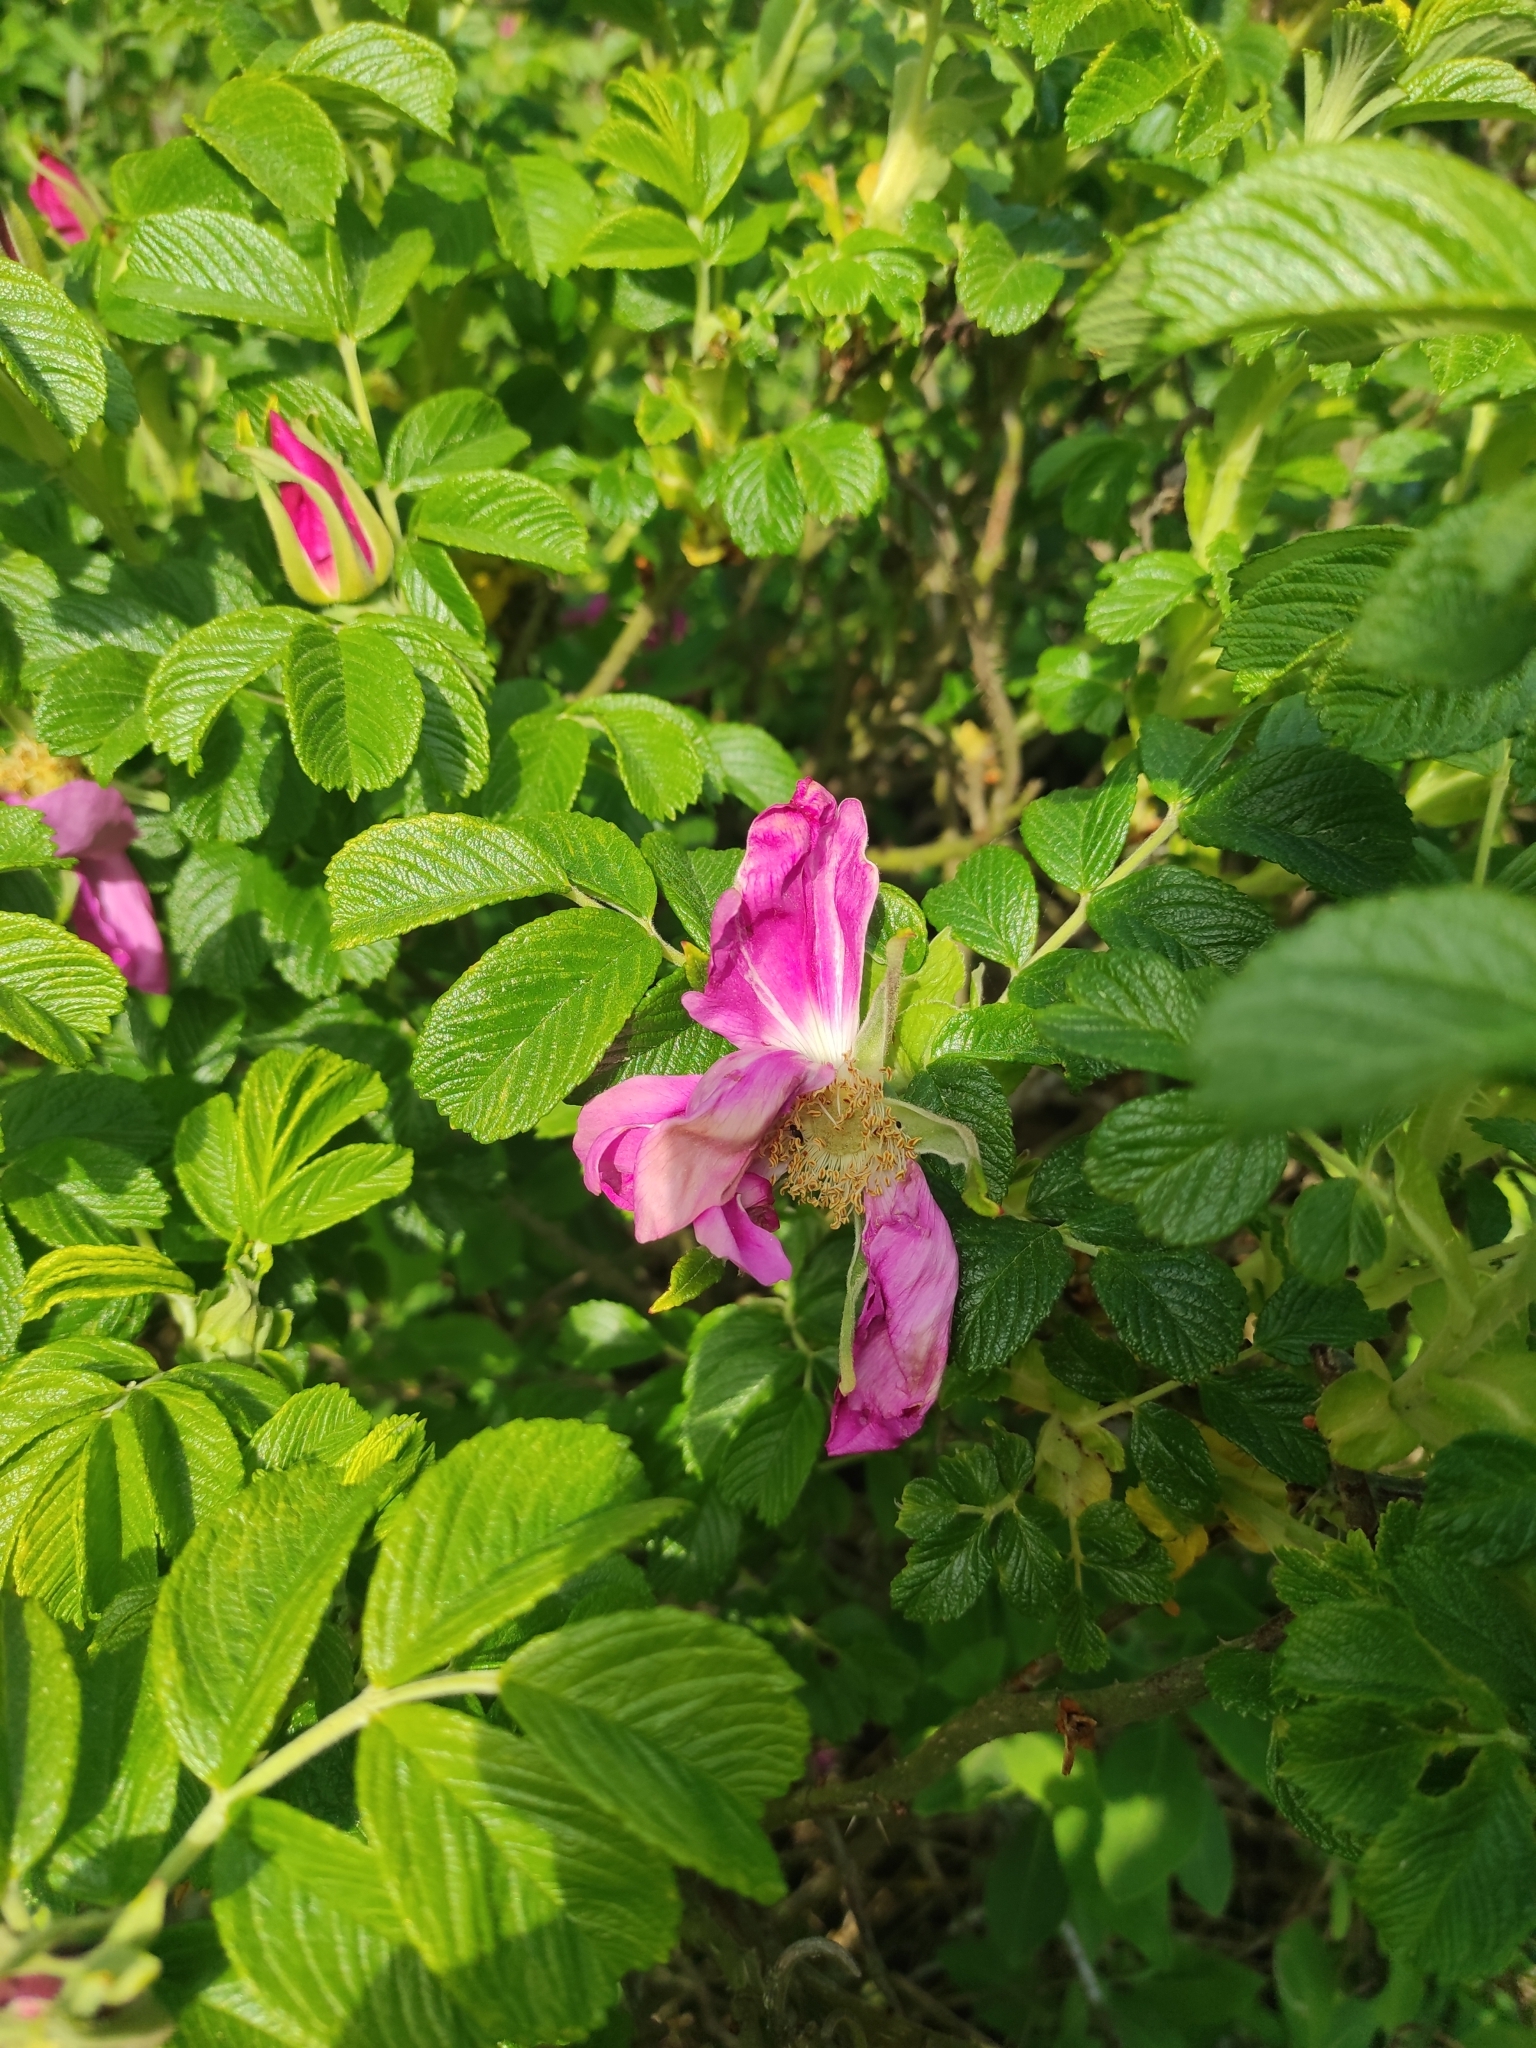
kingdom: Plantae
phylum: Tracheophyta
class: Magnoliopsida
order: Rosales
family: Rosaceae
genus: Rosa
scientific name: Rosa rugosa
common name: Japanese rose
